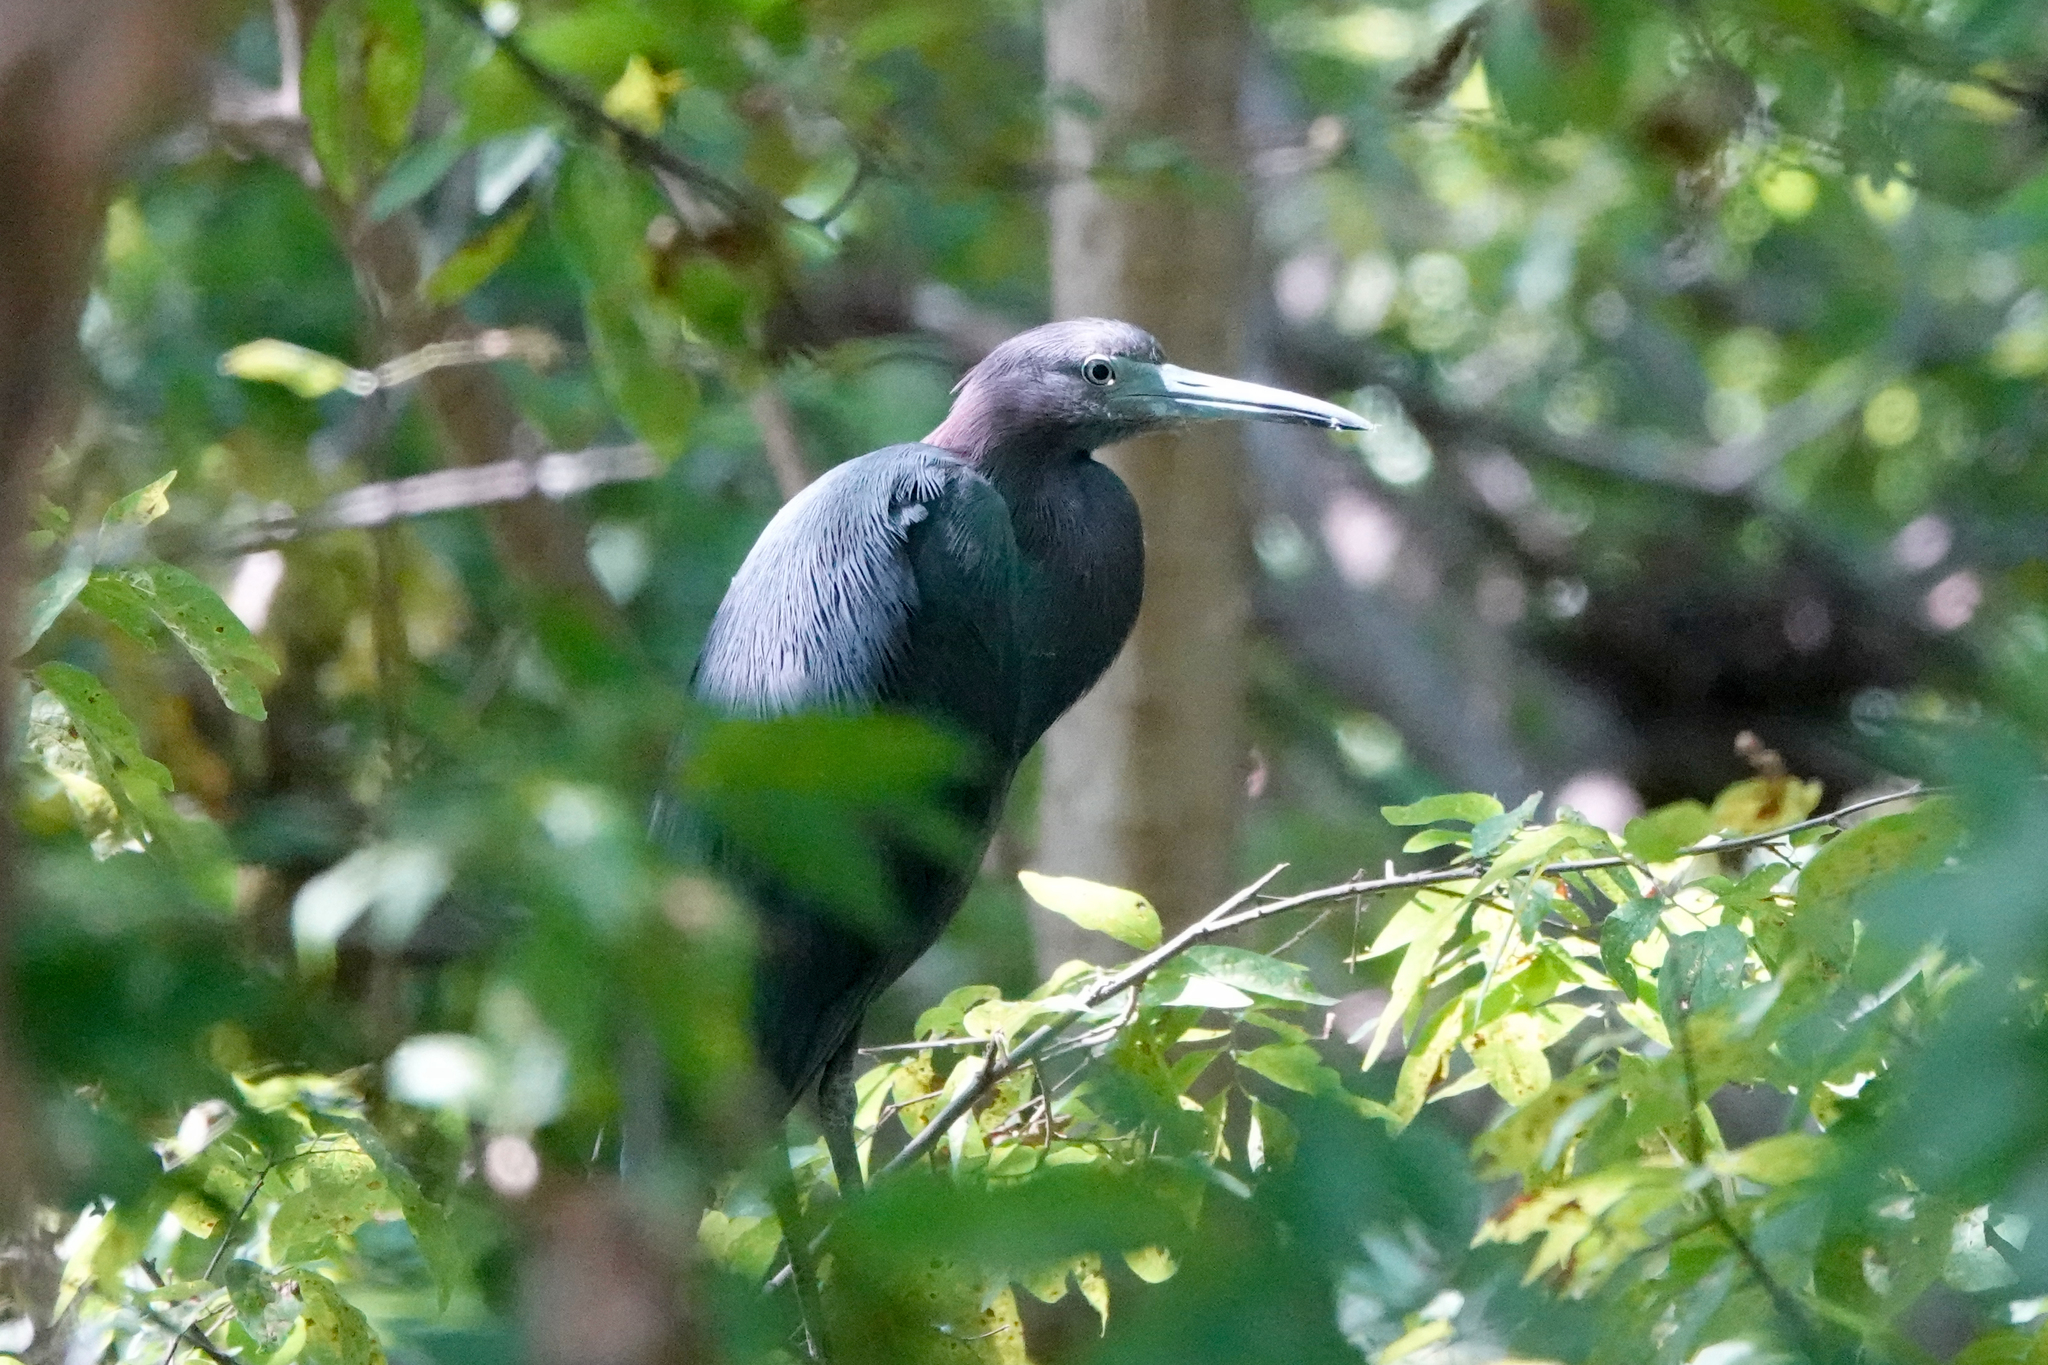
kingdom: Animalia
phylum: Chordata
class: Aves
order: Pelecaniformes
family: Ardeidae
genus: Egretta
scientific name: Egretta caerulea
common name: Little blue heron
